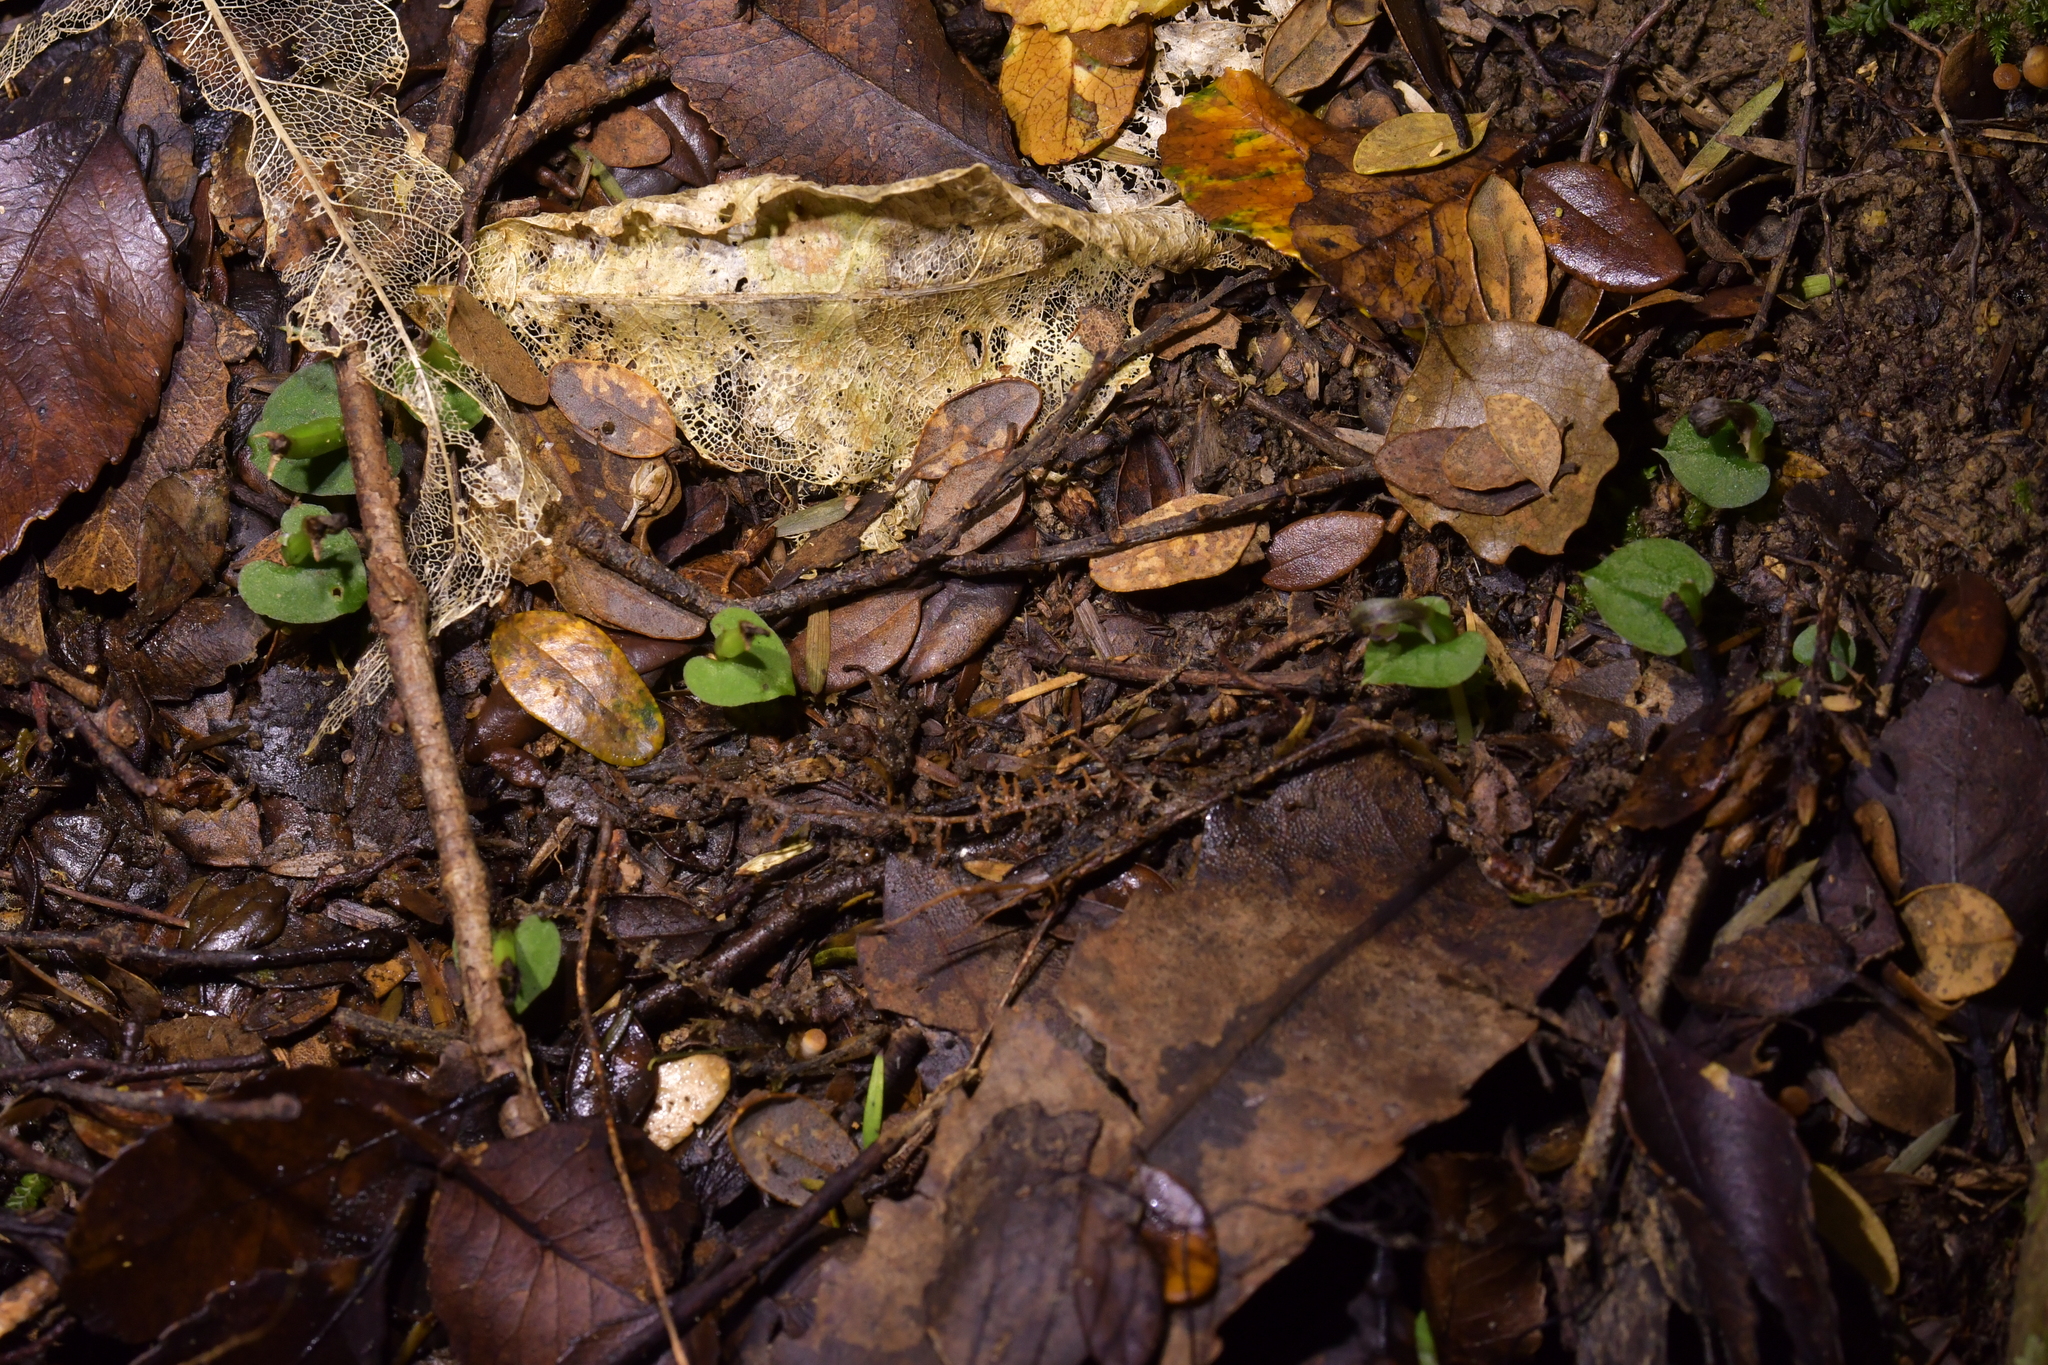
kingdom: Plantae
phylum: Tracheophyta
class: Liliopsida
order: Asparagales
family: Orchidaceae
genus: Corybas
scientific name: Corybas cheesemanii
